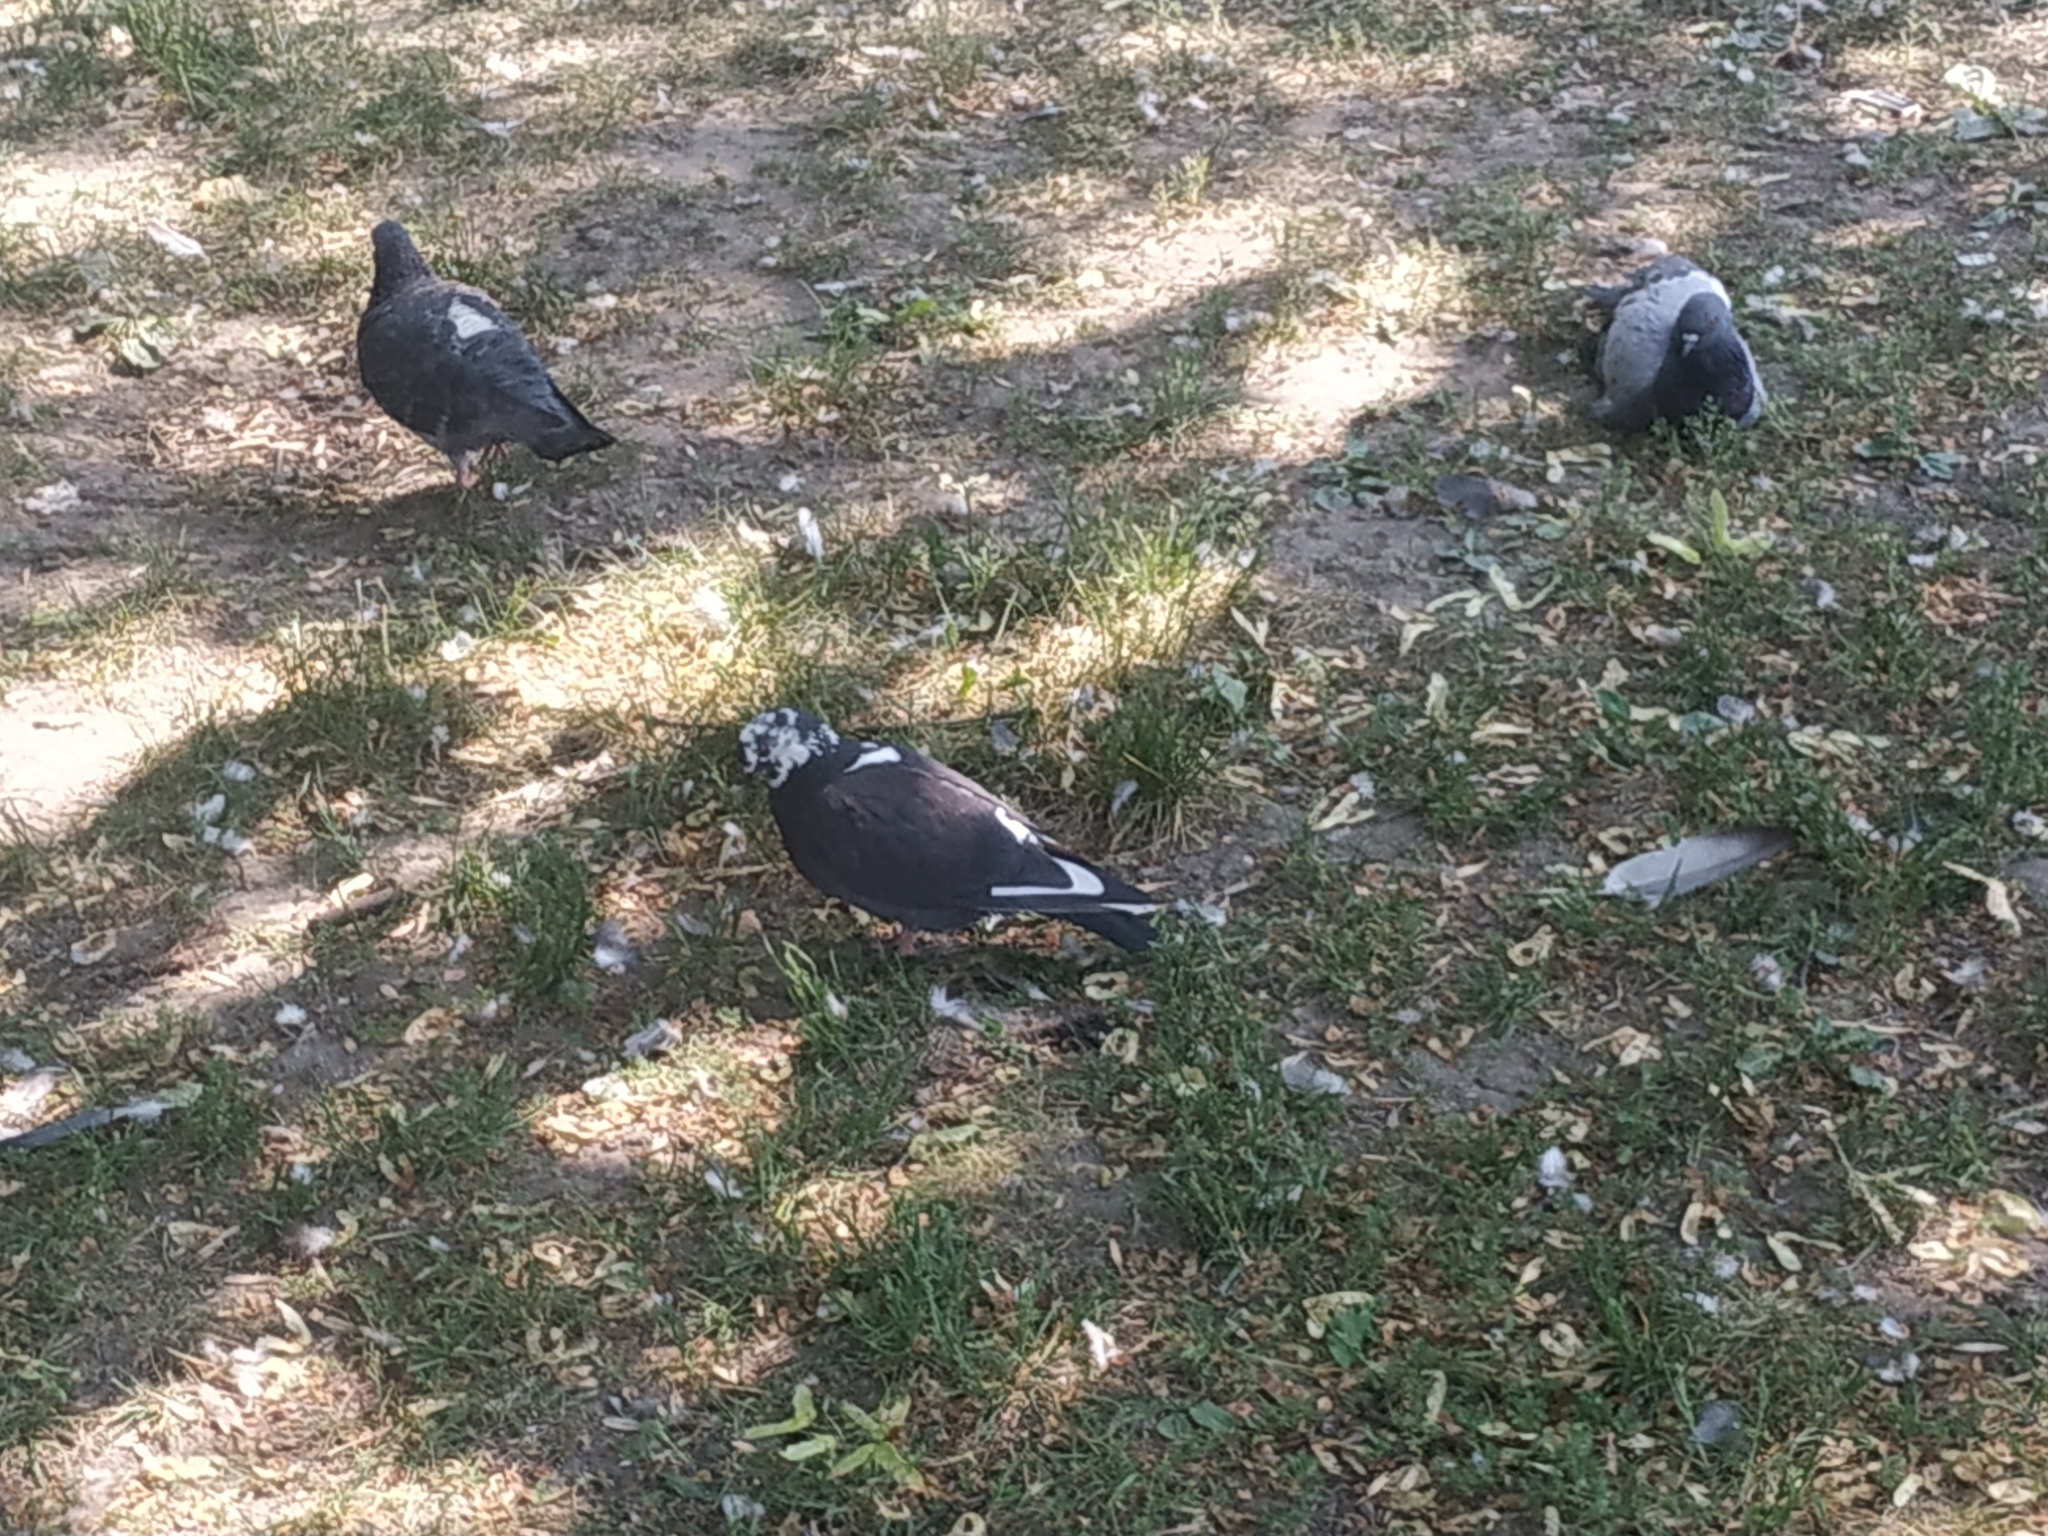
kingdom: Animalia
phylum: Chordata
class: Aves
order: Columbiformes
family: Columbidae
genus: Columba
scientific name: Columba livia
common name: Rock pigeon
